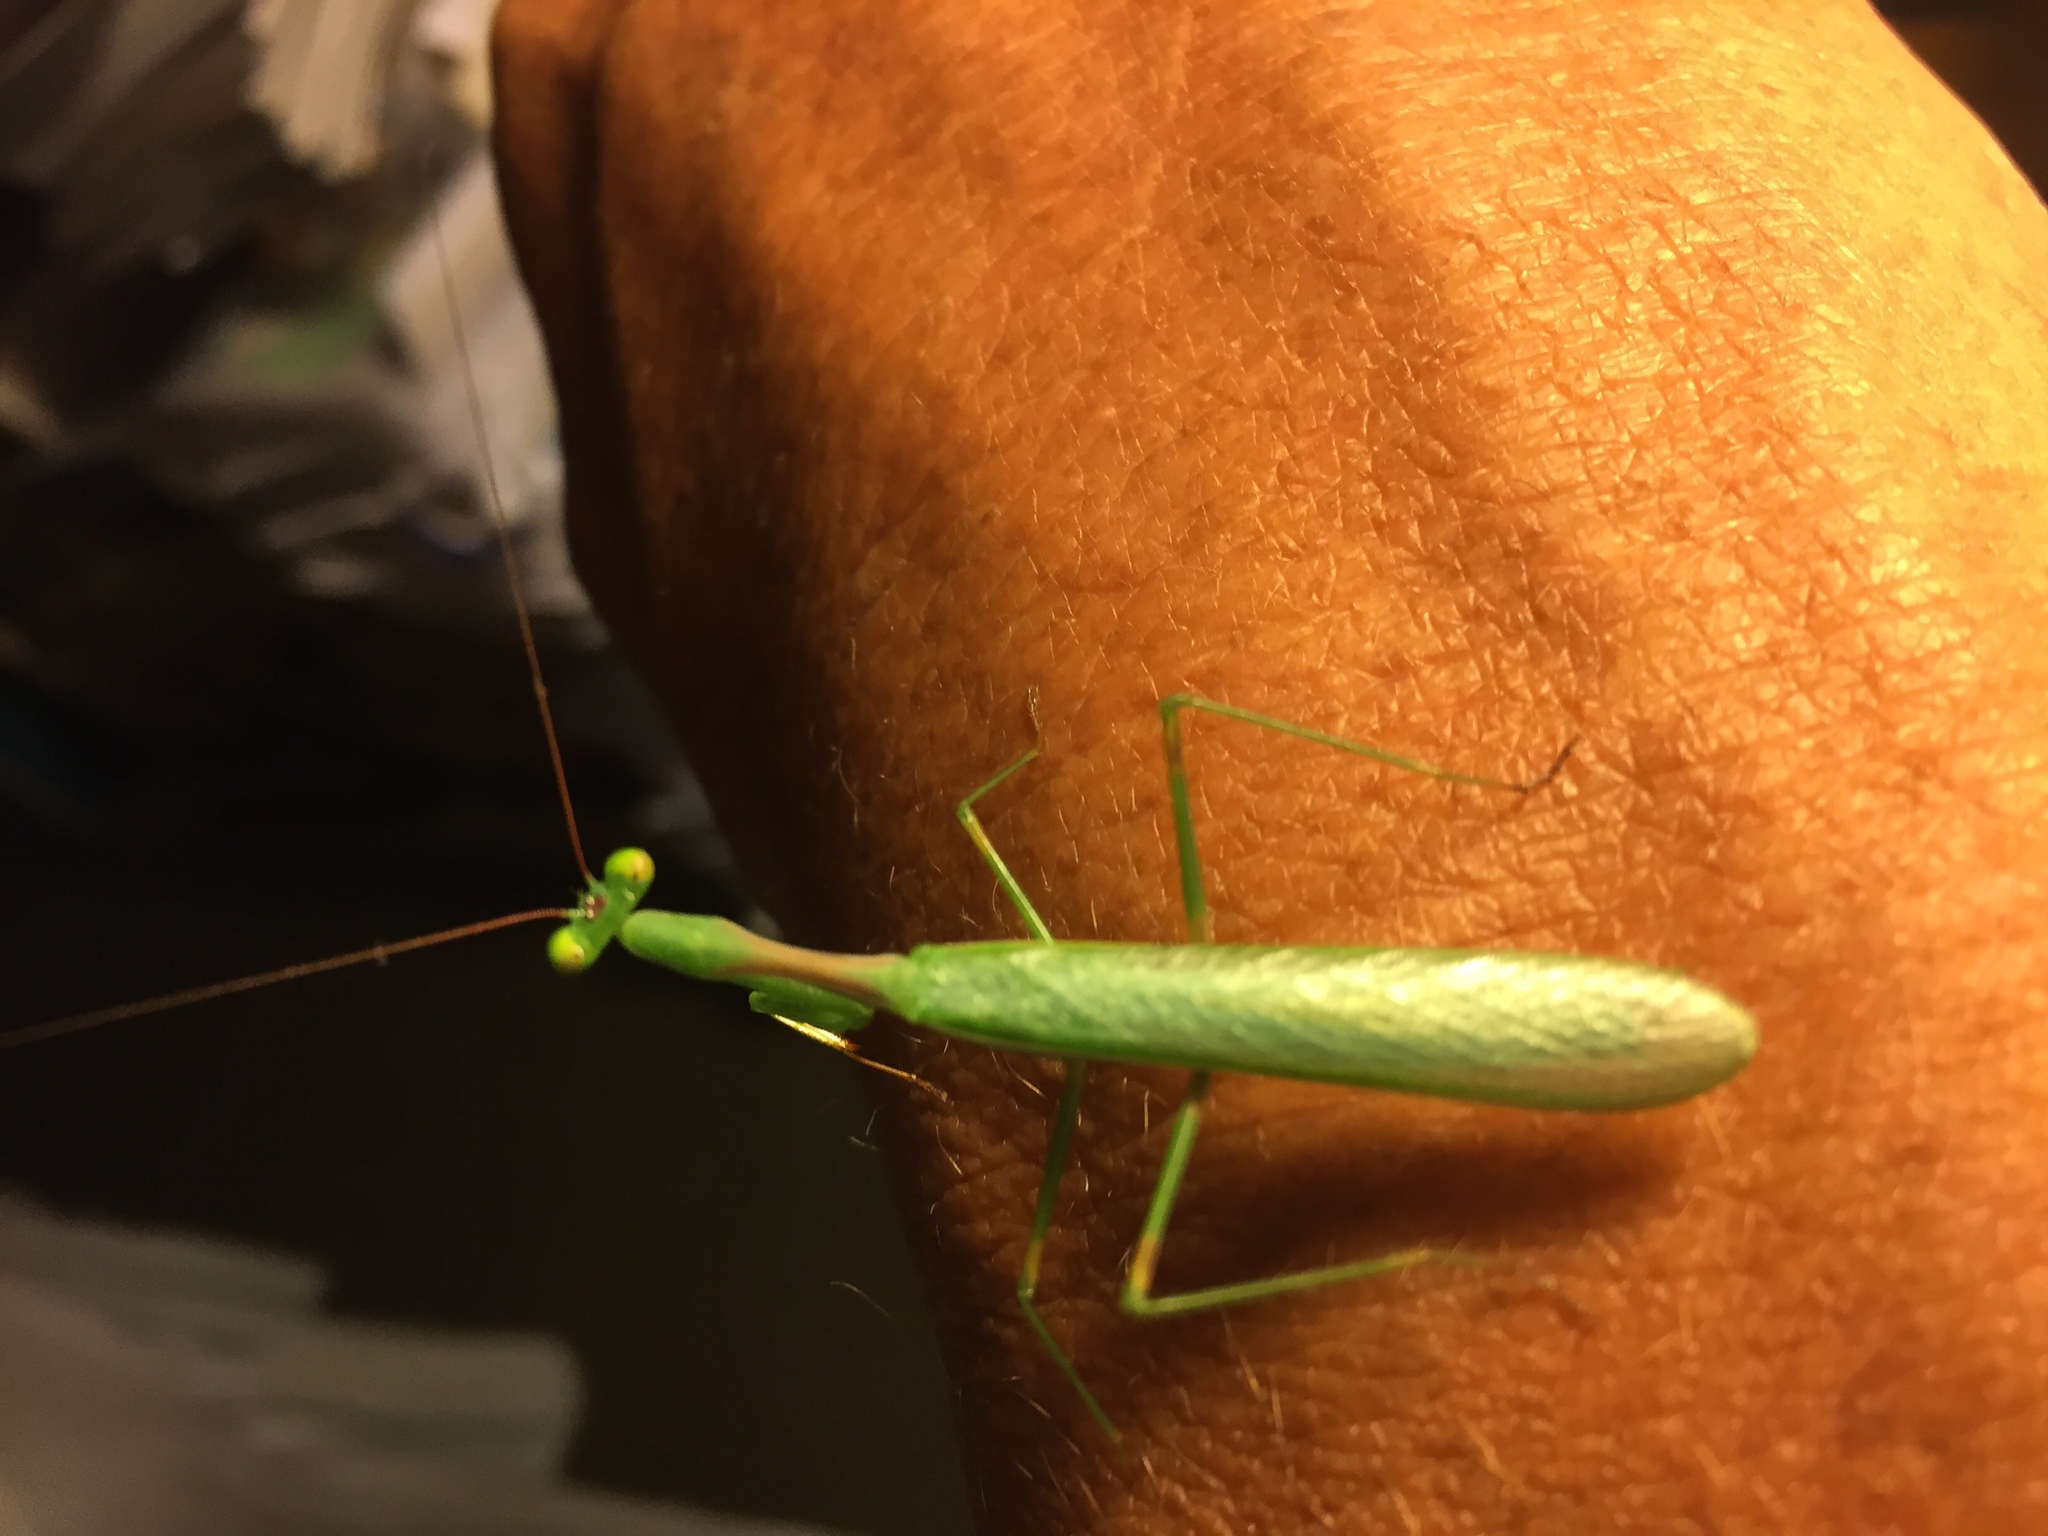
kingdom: Animalia
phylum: Arthropoda
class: Insecta
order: Mantodea
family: Miomantidae
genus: Miomantis
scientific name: Miomantis caffra
